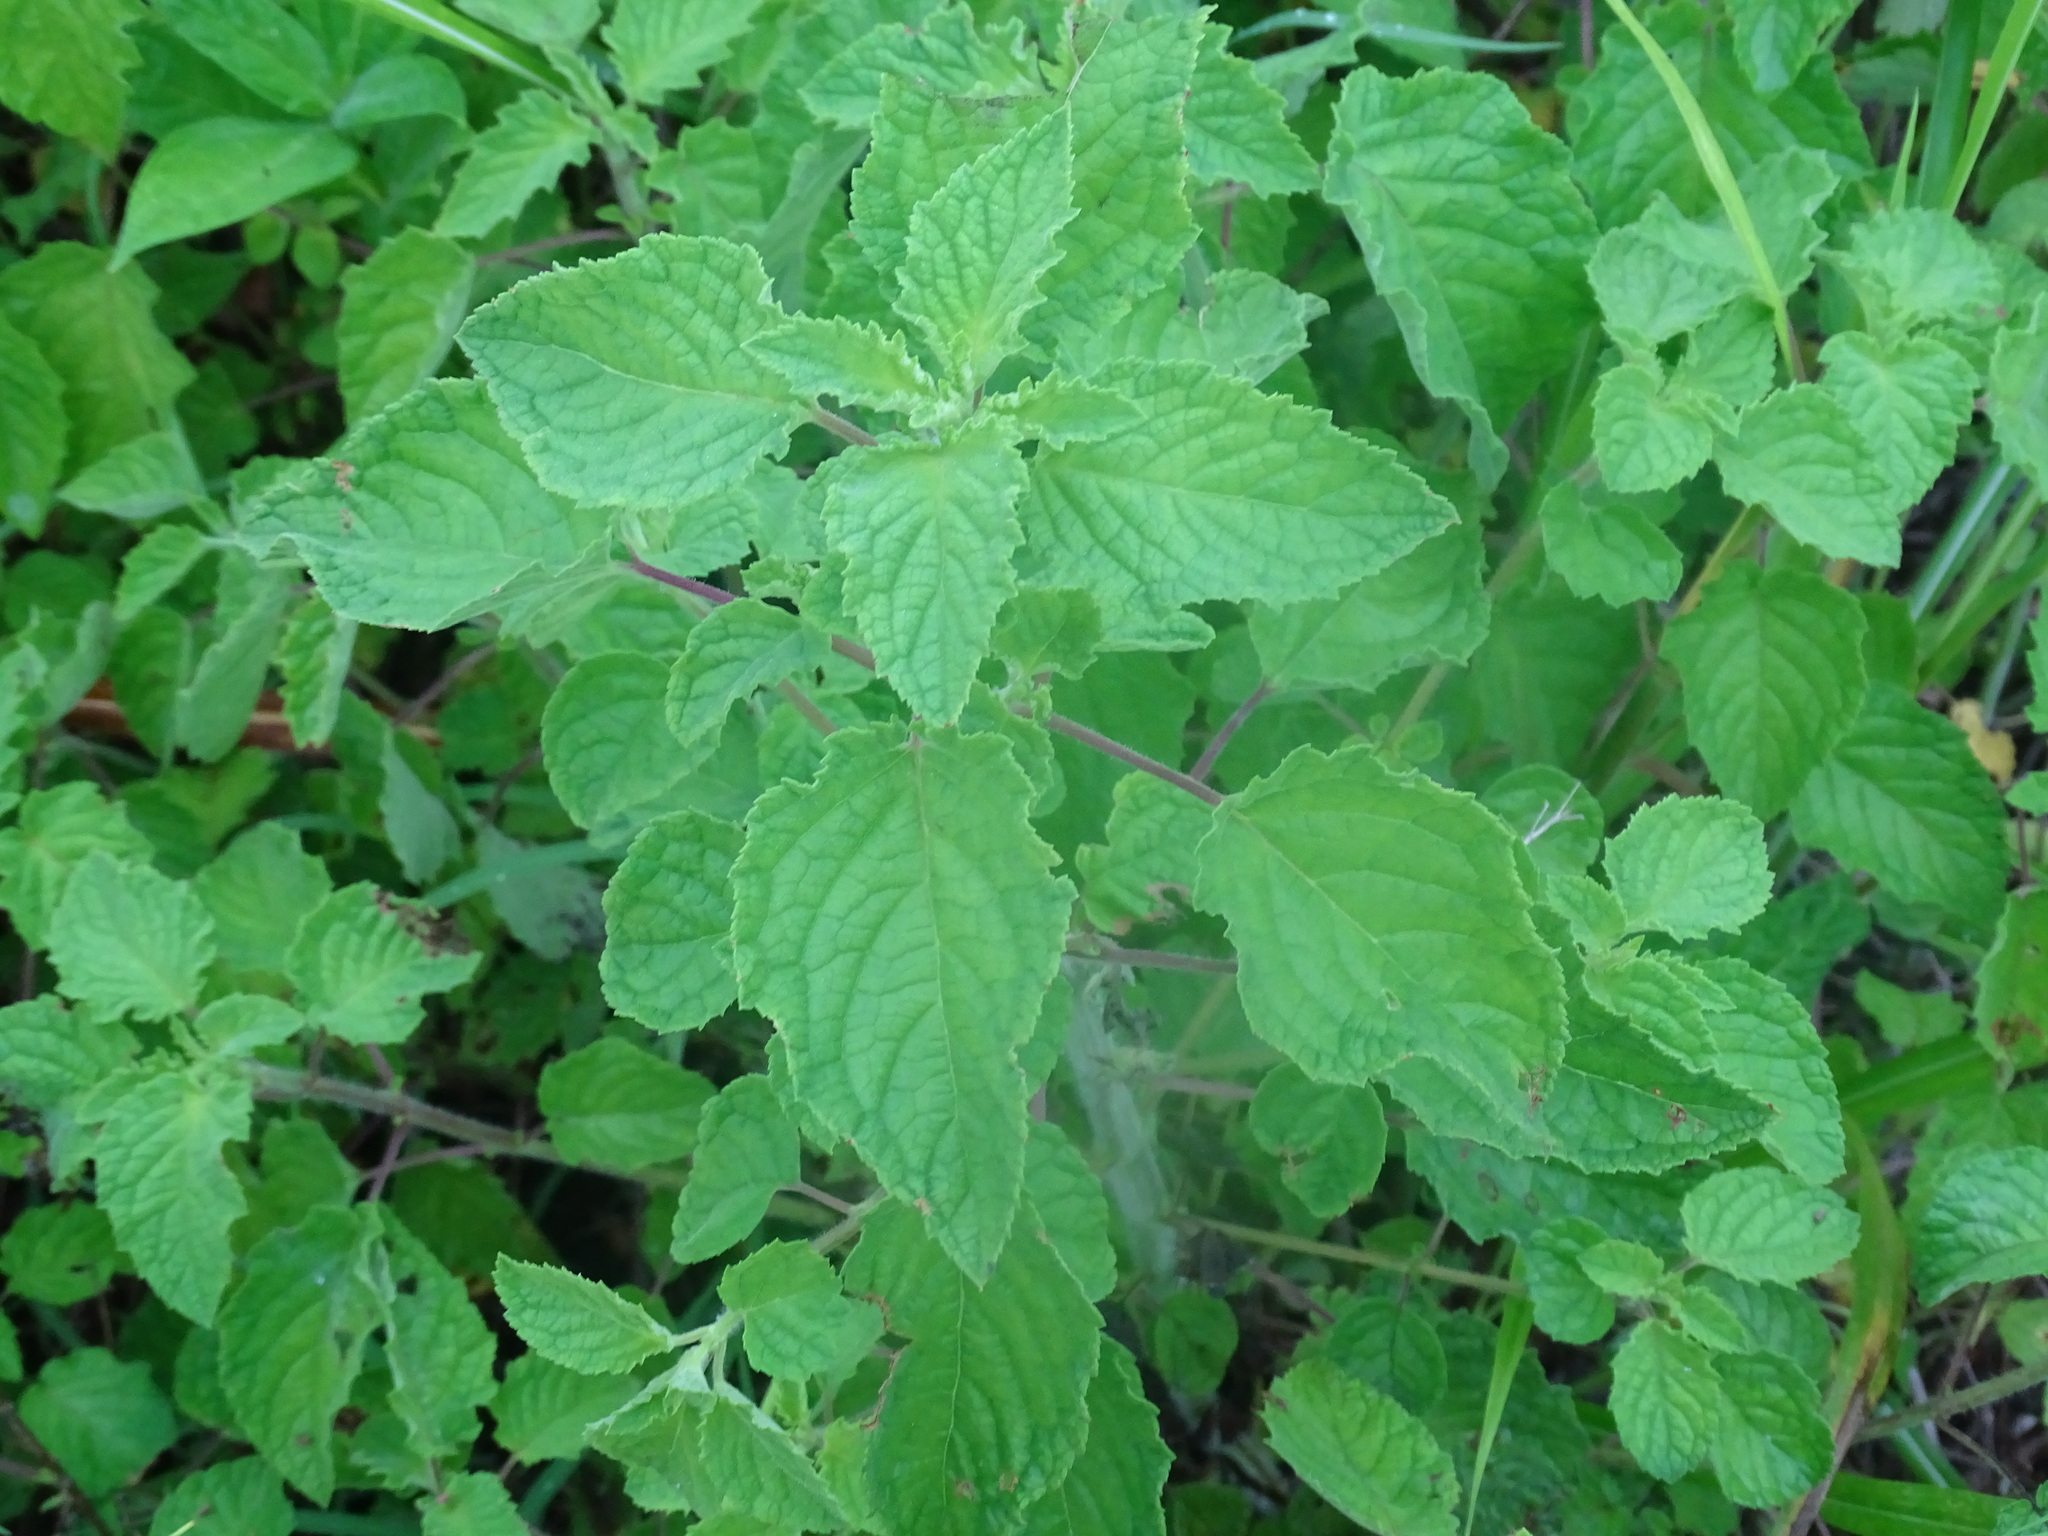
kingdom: Plantae
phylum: Tracheophyta
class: Magnoliopsida
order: Lamiales
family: Lamiaceae
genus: Mesosphaerum
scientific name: Mesosphaerum suaveolens
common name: Pignut
